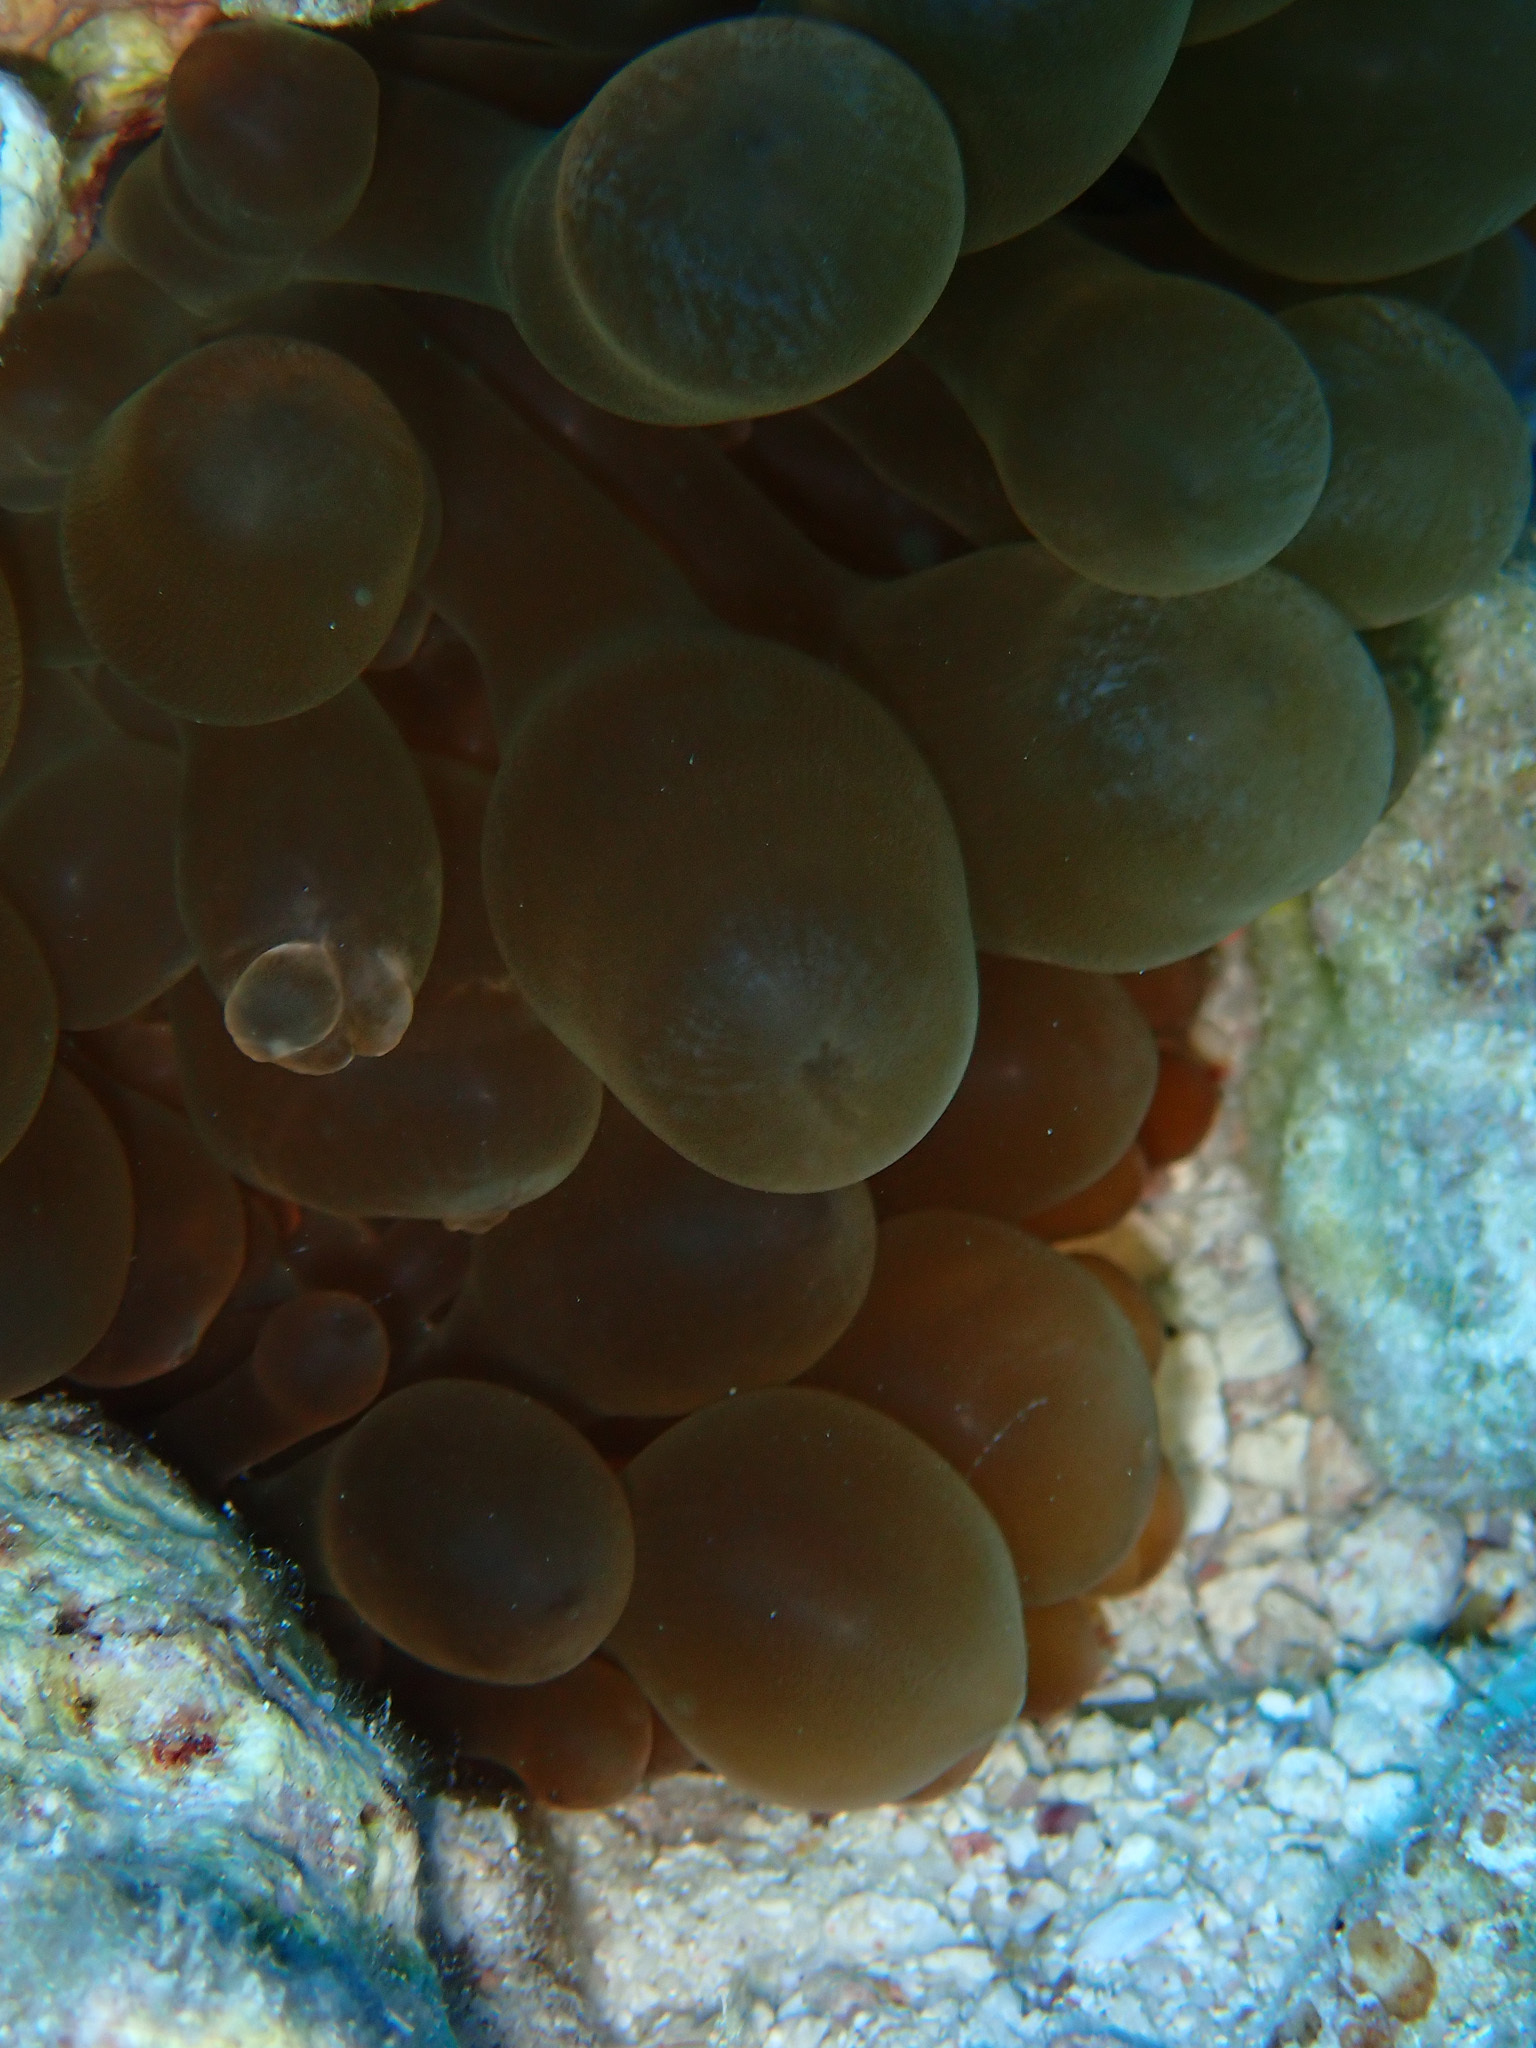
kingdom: Animalia
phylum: Cnidaria
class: Anthozoa
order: Actiniaria
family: Actiniidae
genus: Entacmaea
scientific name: Entacmaea quadricolor
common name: Bulb tentacle sea anemone
